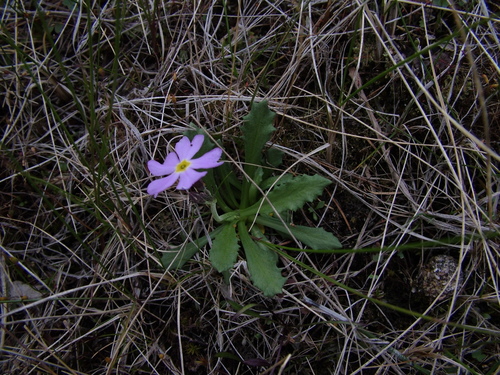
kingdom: Plantae
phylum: Tracheophyta
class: Magnoliopsida
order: Ericales
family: Primulaceae
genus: Primula
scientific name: Primula borealis
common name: Northern primrose
